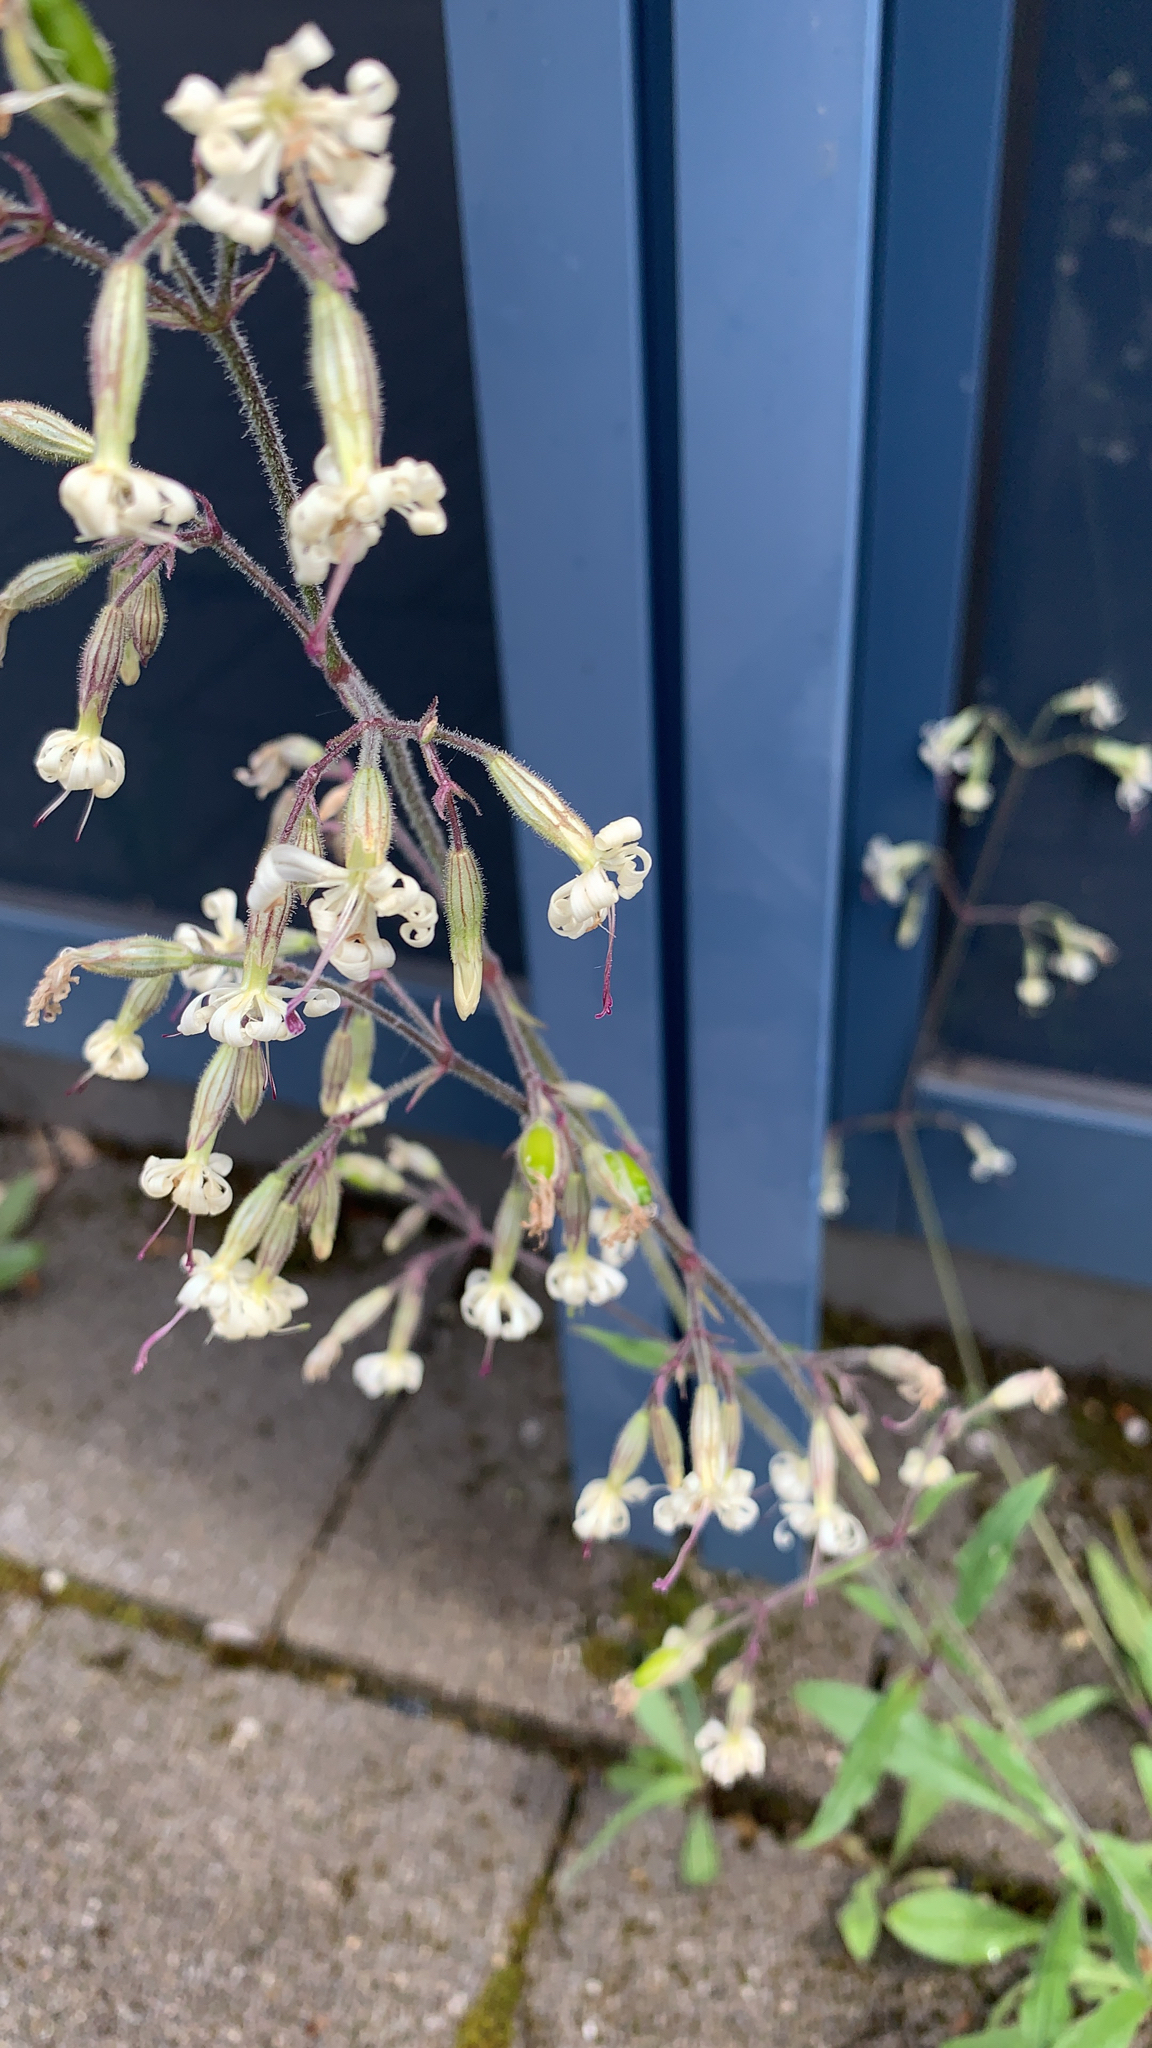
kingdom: Plantae
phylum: Tracheophyta
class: Magnoliopsida
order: Caryophyllales
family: Caryophyllaceae
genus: Silene
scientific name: Silene nutans
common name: Nottingham catchfly
